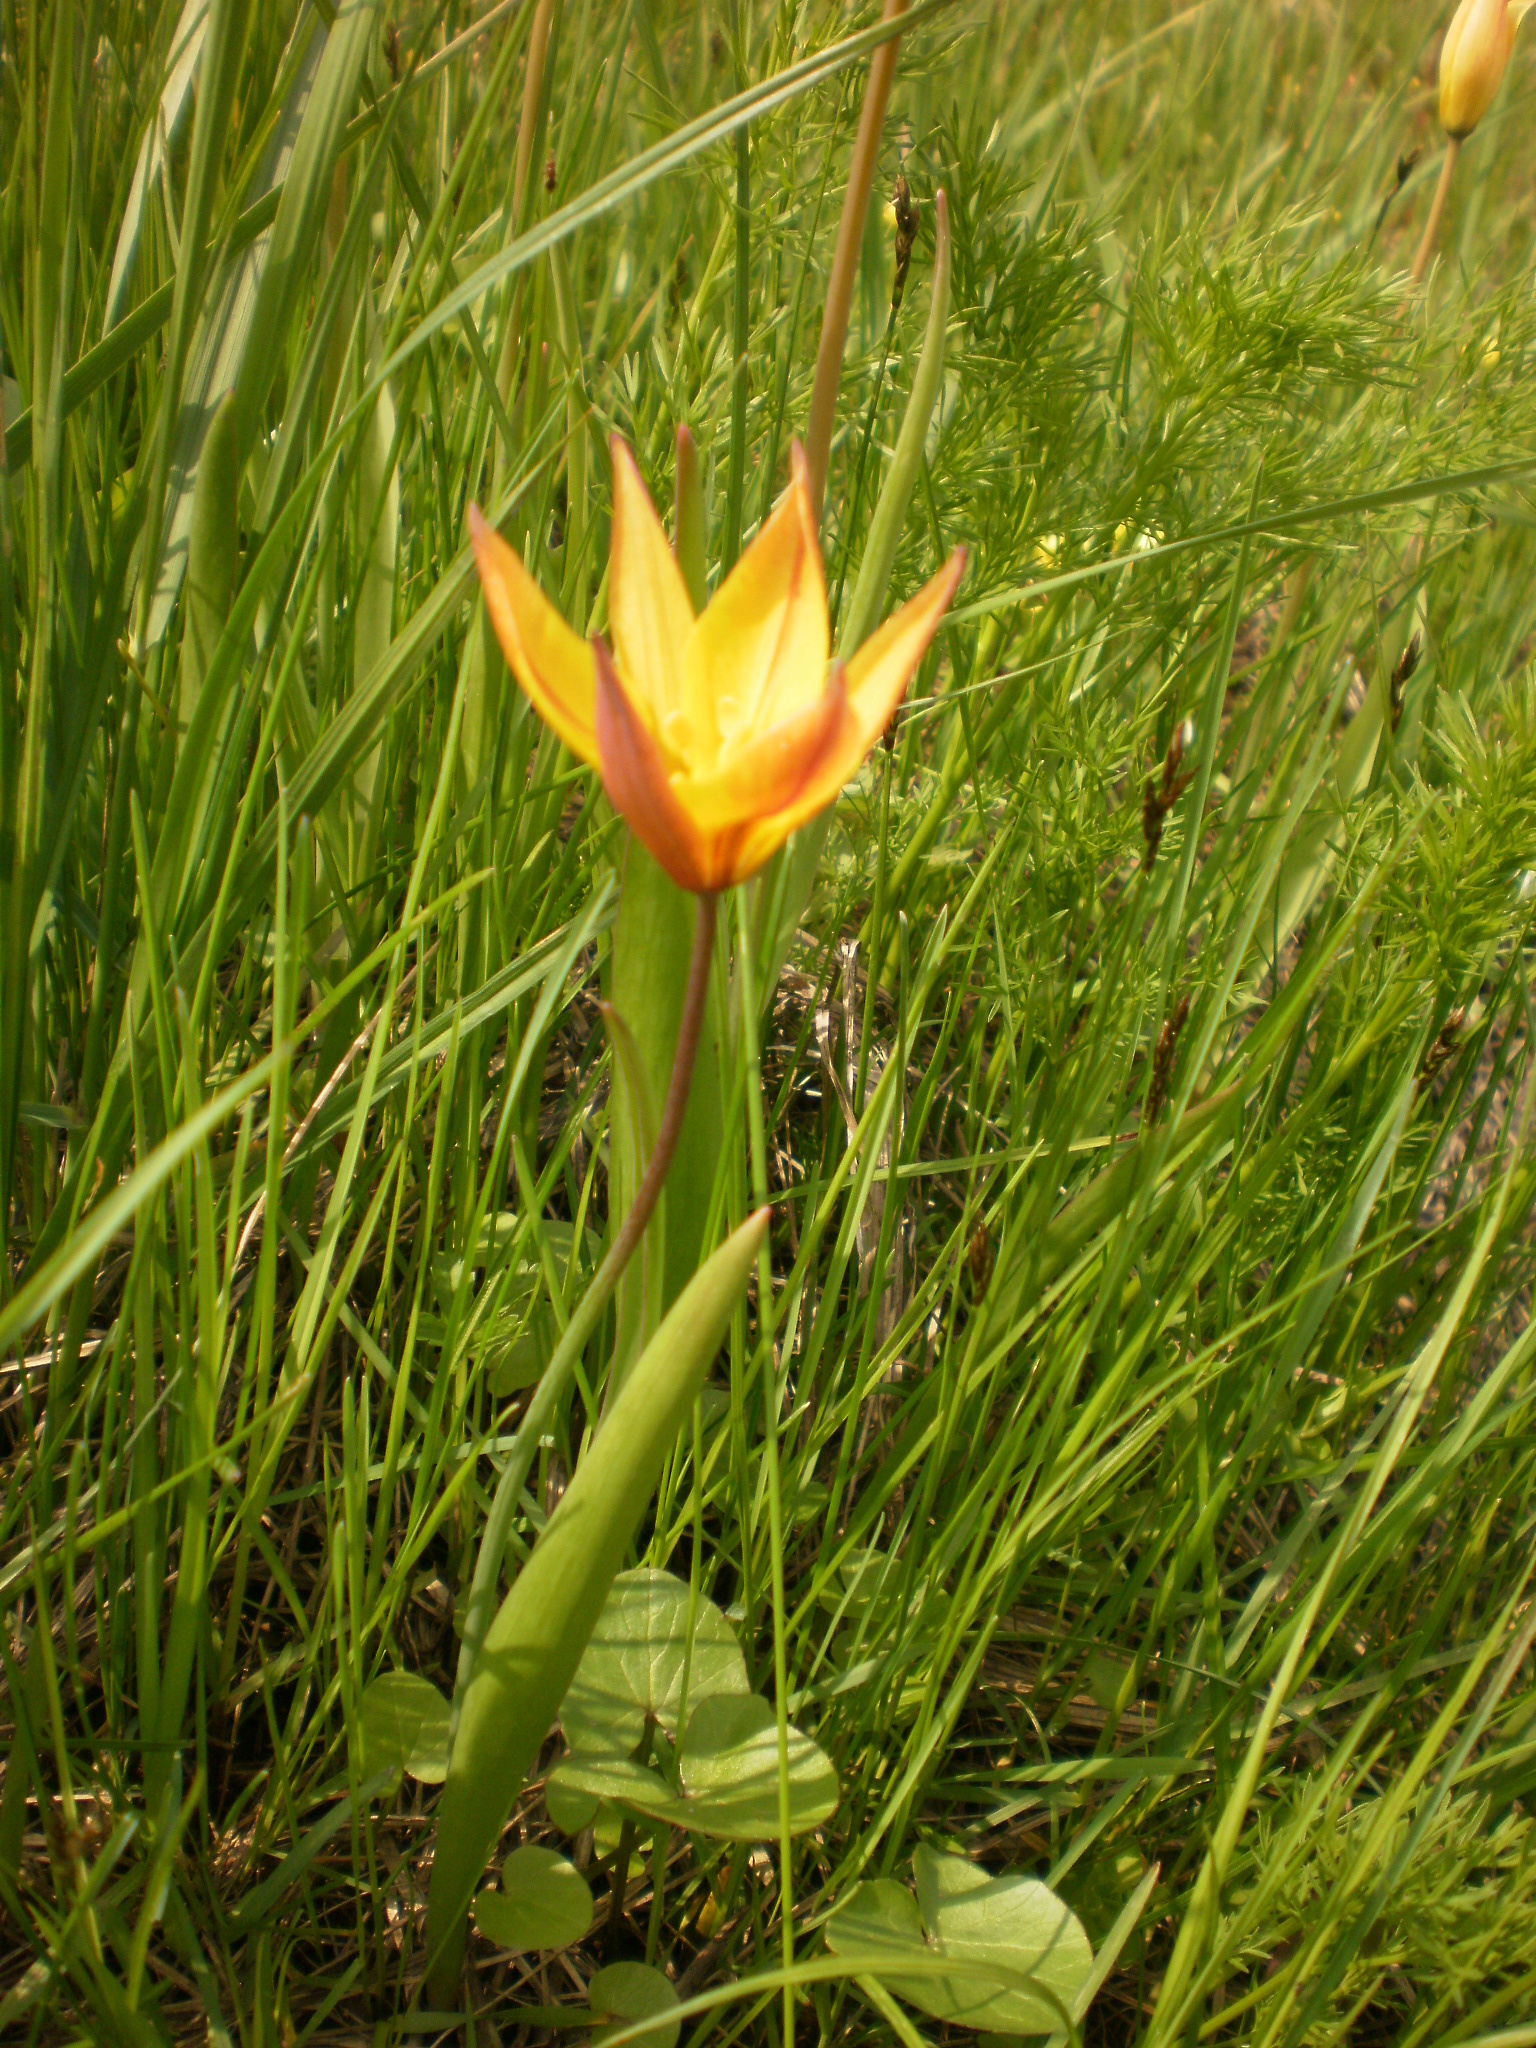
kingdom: Plantae
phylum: Tracheophyta
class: Liliopsida
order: Liliales
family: Liliaceae
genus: Tulipa
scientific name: Tulipa sylvestris
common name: Wild tulip
